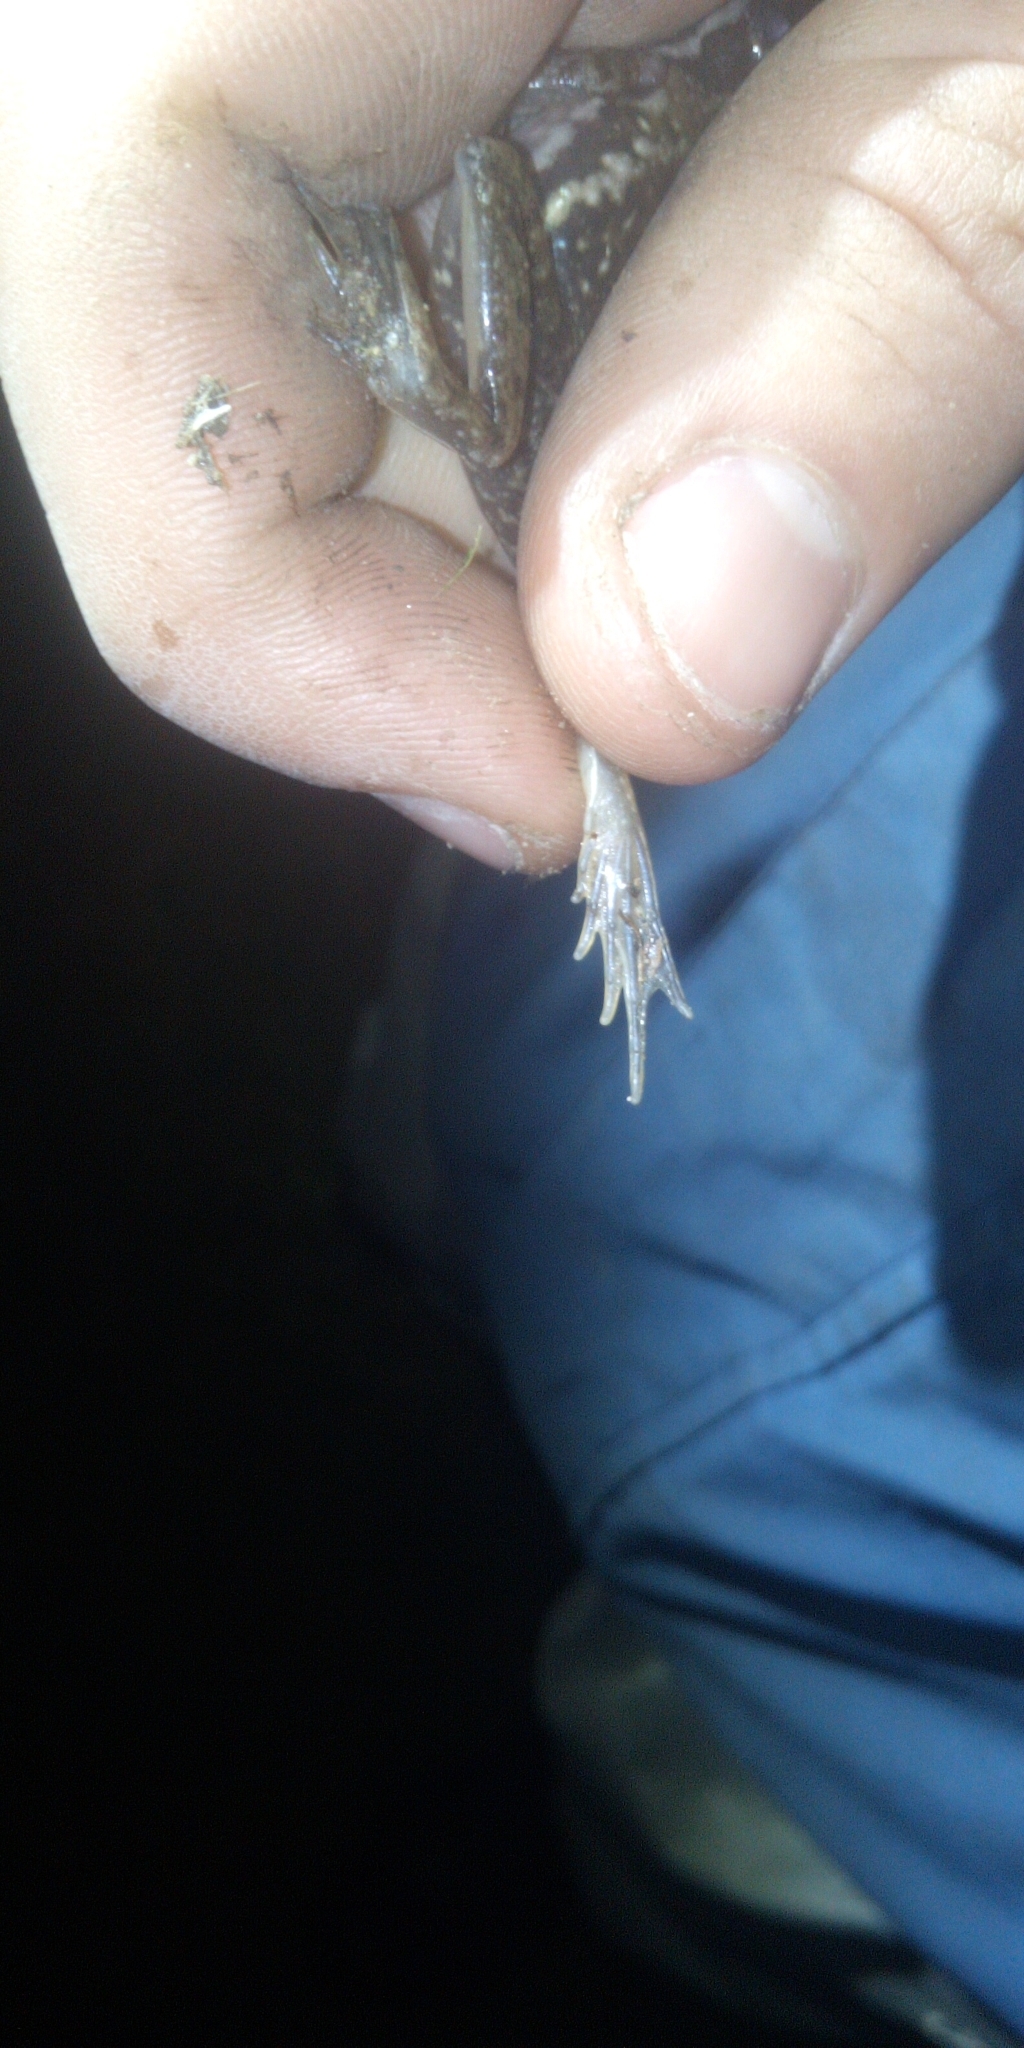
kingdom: Animalia
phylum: Chordata
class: Amphibia
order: Anura
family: Pyxicephalidae
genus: Amietia
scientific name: Amietia fuscigula
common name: Cape rana
